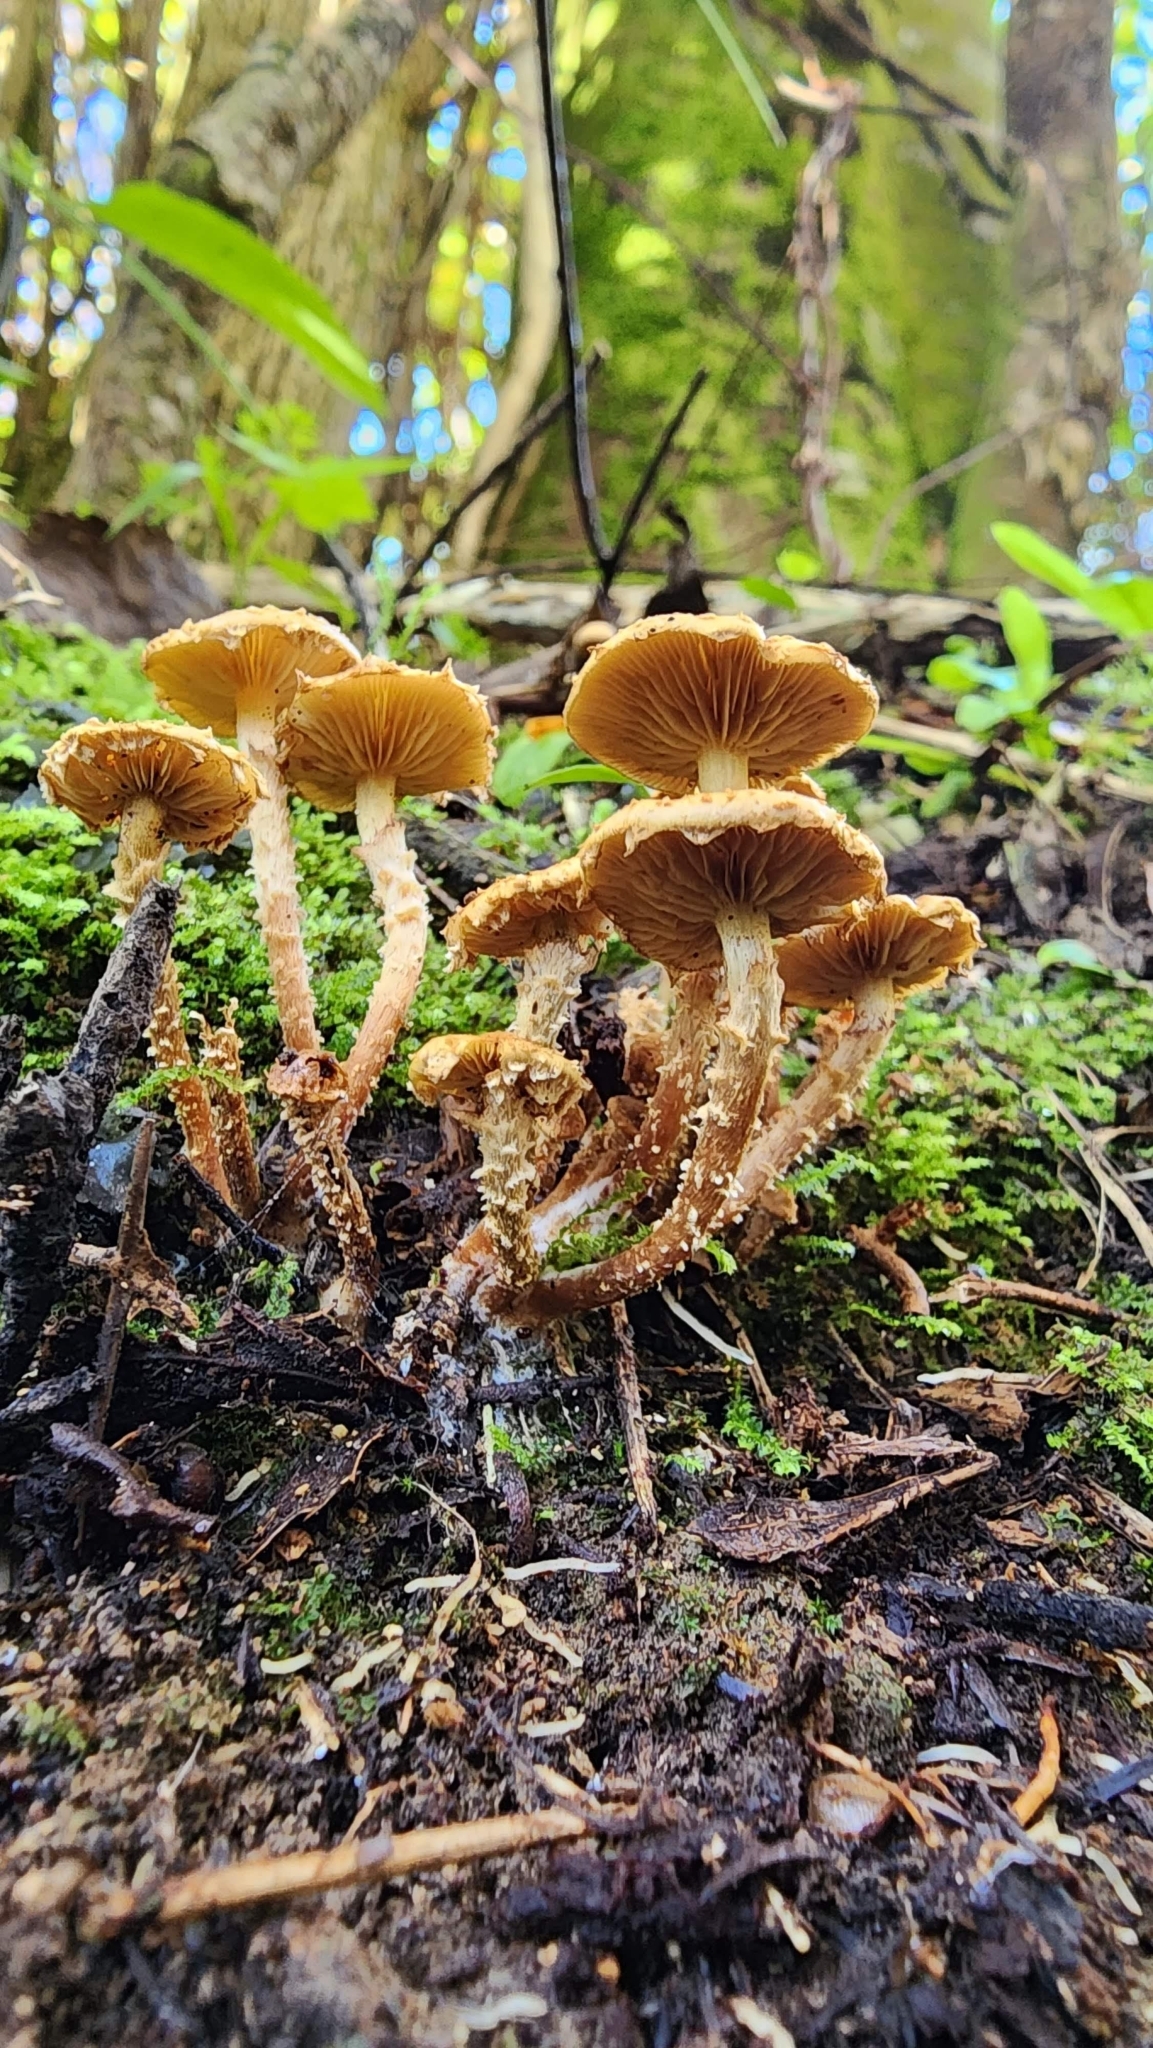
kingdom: Fungi
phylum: Basidiomycota
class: Agaricomycetes
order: Agaricales
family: Strophariaceae
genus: Pholiota
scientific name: Pholiota subflammans
